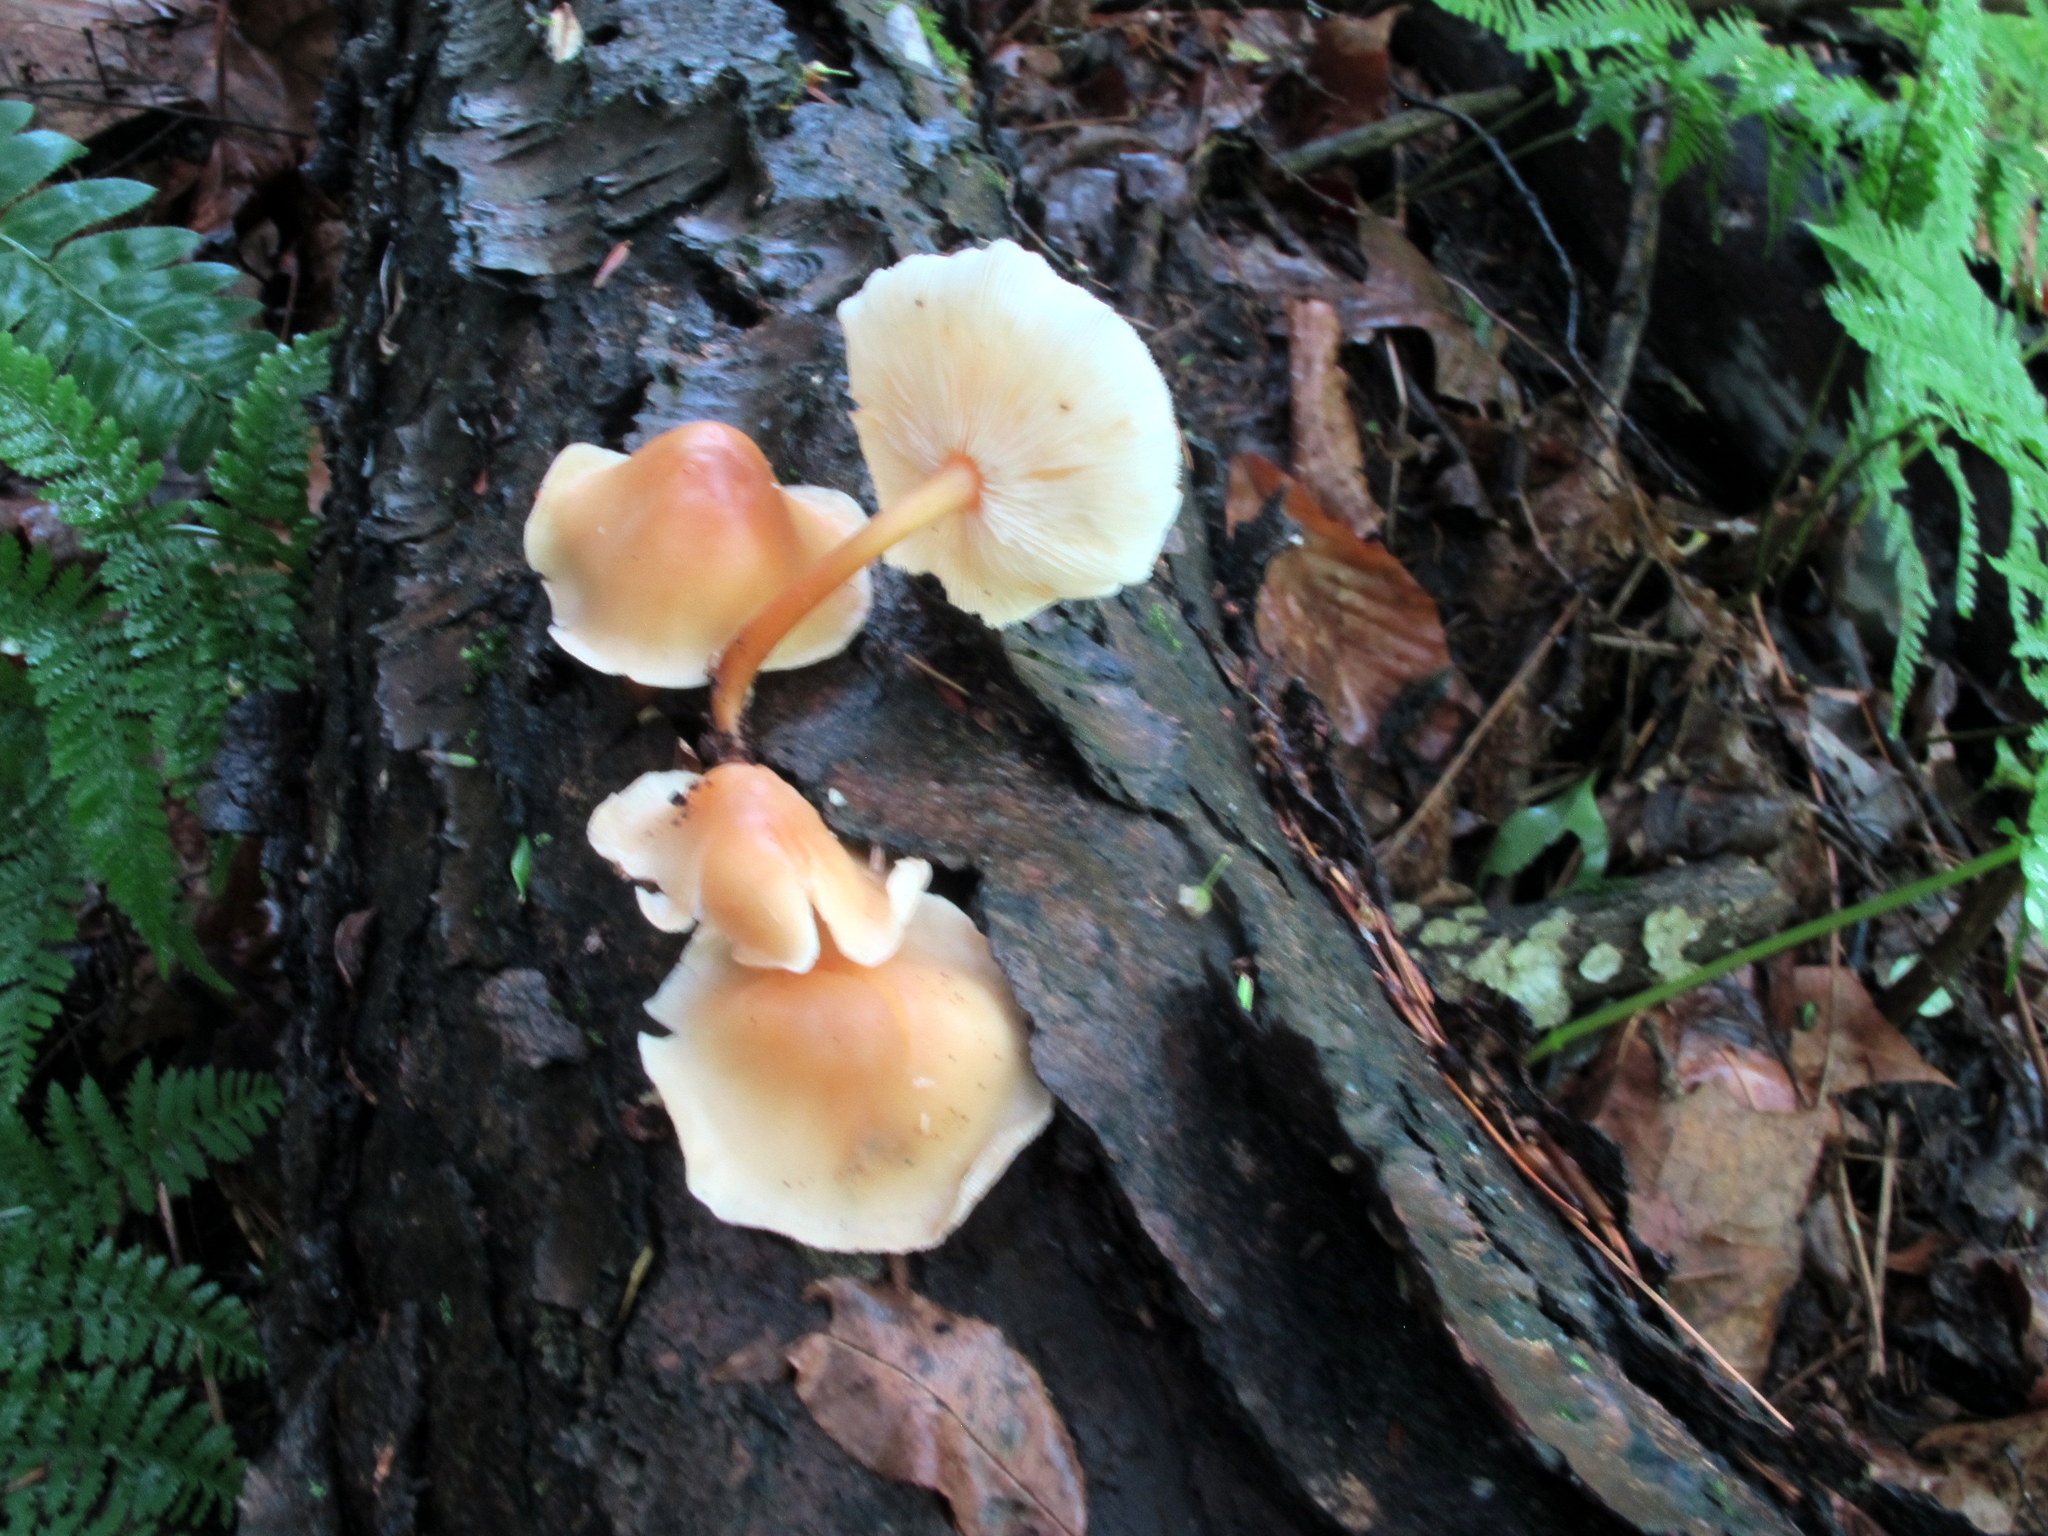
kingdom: Fungi
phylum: Basidiomycota
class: Agaricomycetes
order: Agaricales
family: Omphalotaceae
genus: Gymnopus
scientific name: Gymnopus dryophilus
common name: Penny top
